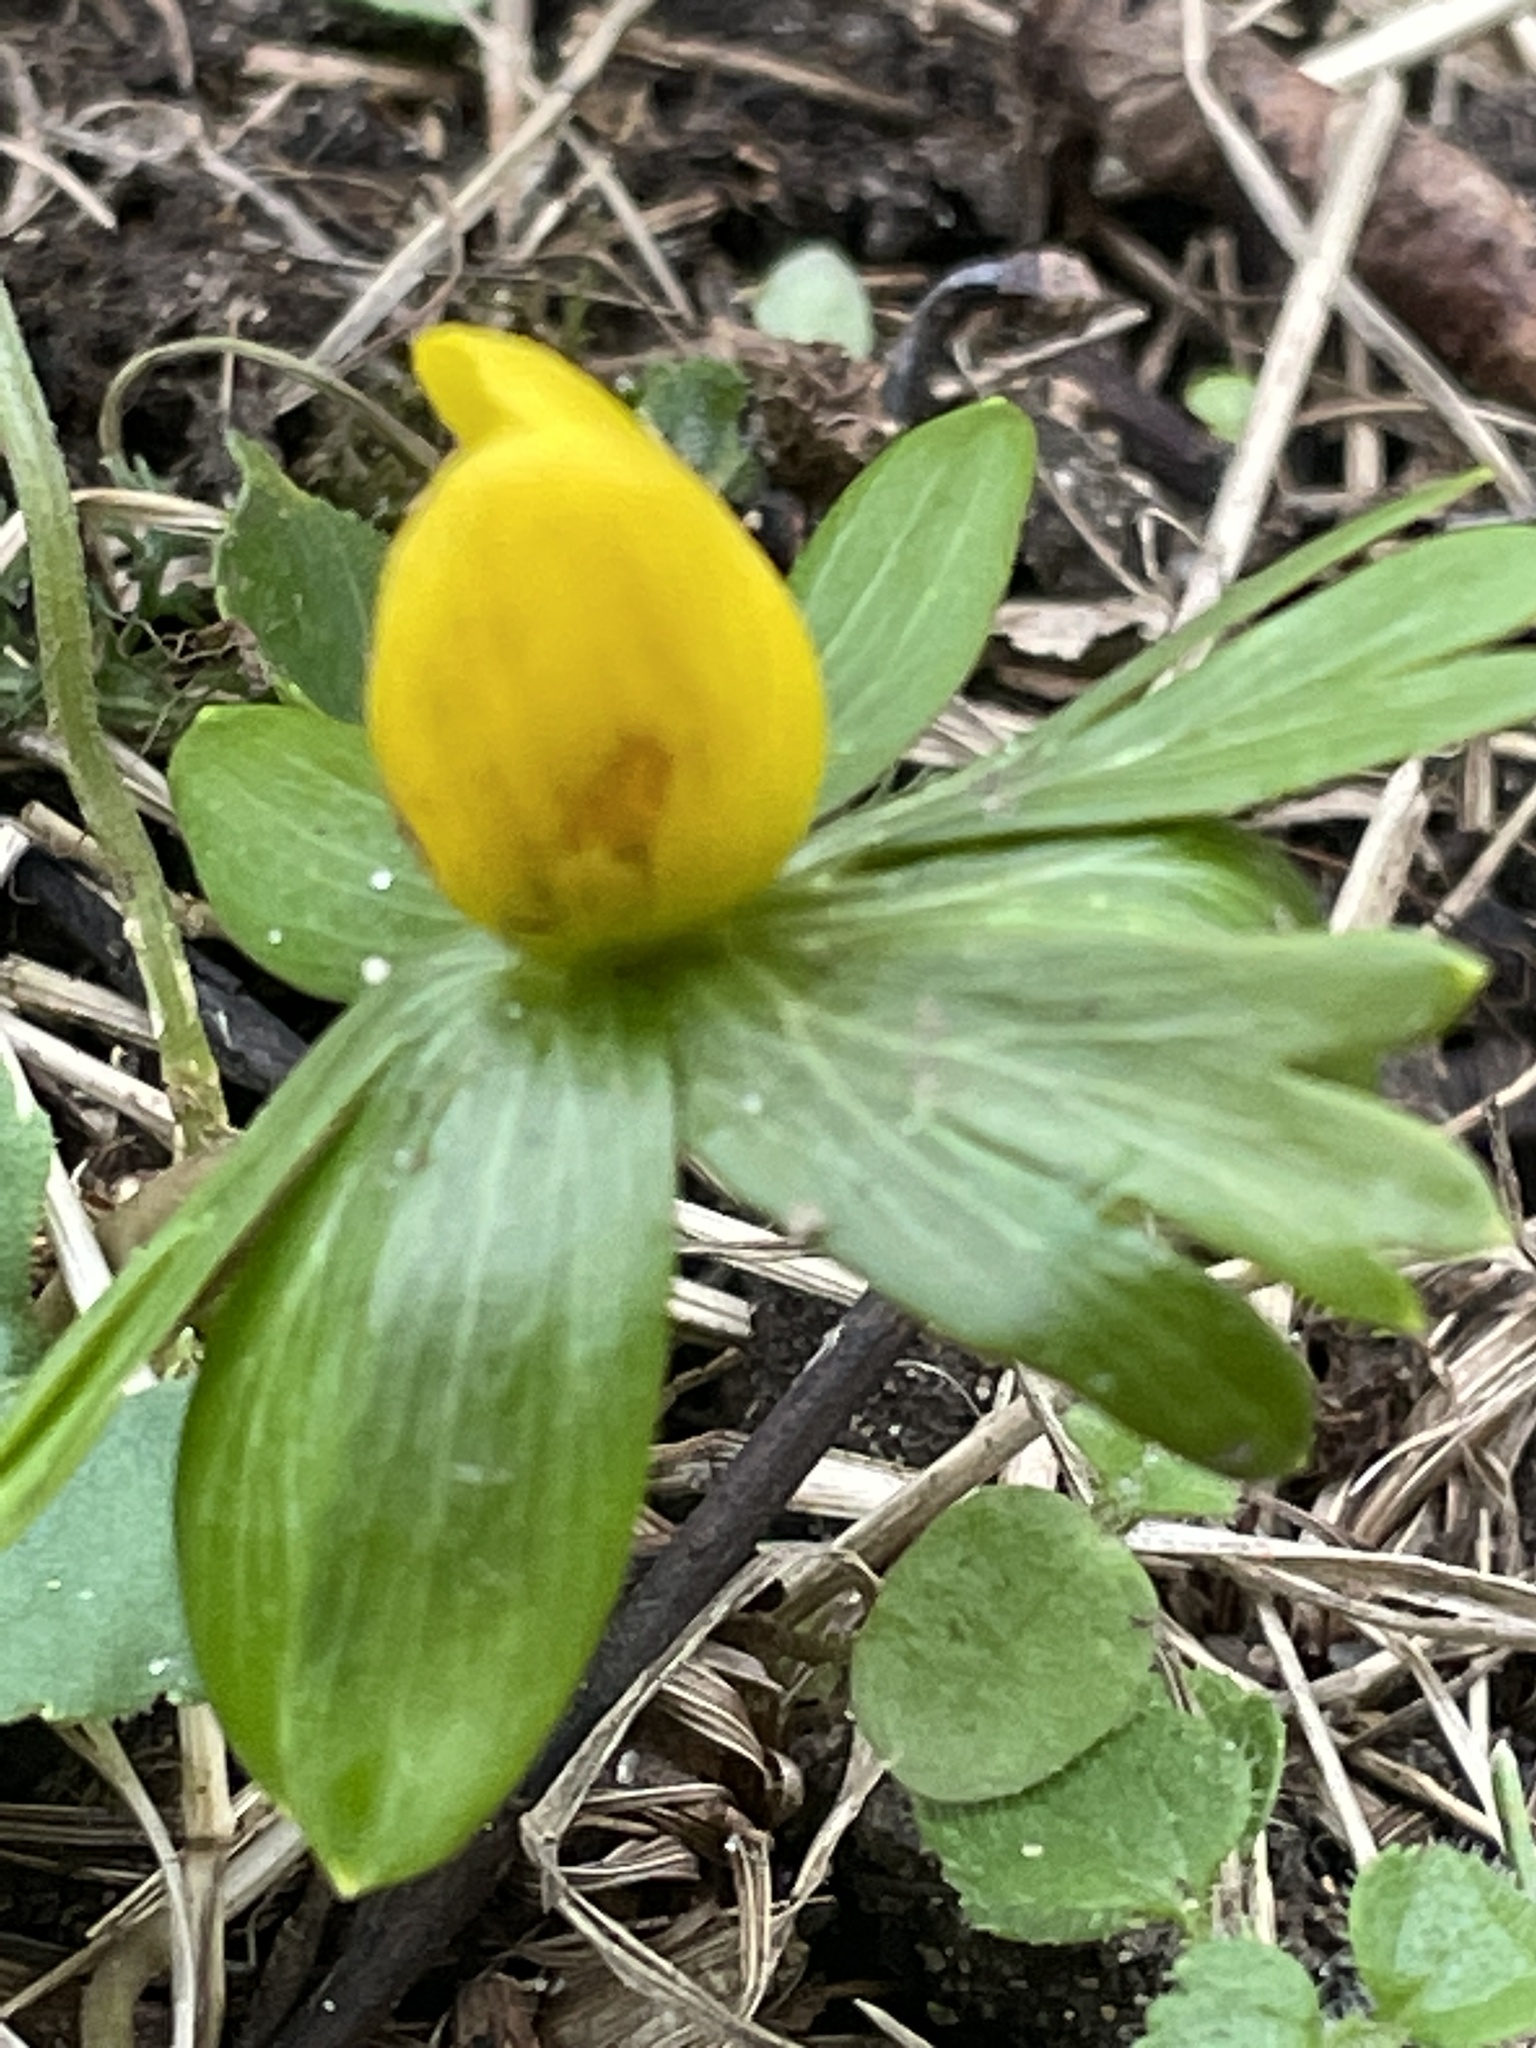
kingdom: Plantae
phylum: Tracheophyta
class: Magnoliopsida
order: Ranunculales
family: Ranunculaceae
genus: Eranthis
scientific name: Eranthis hyemalis
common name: Winter aconite
